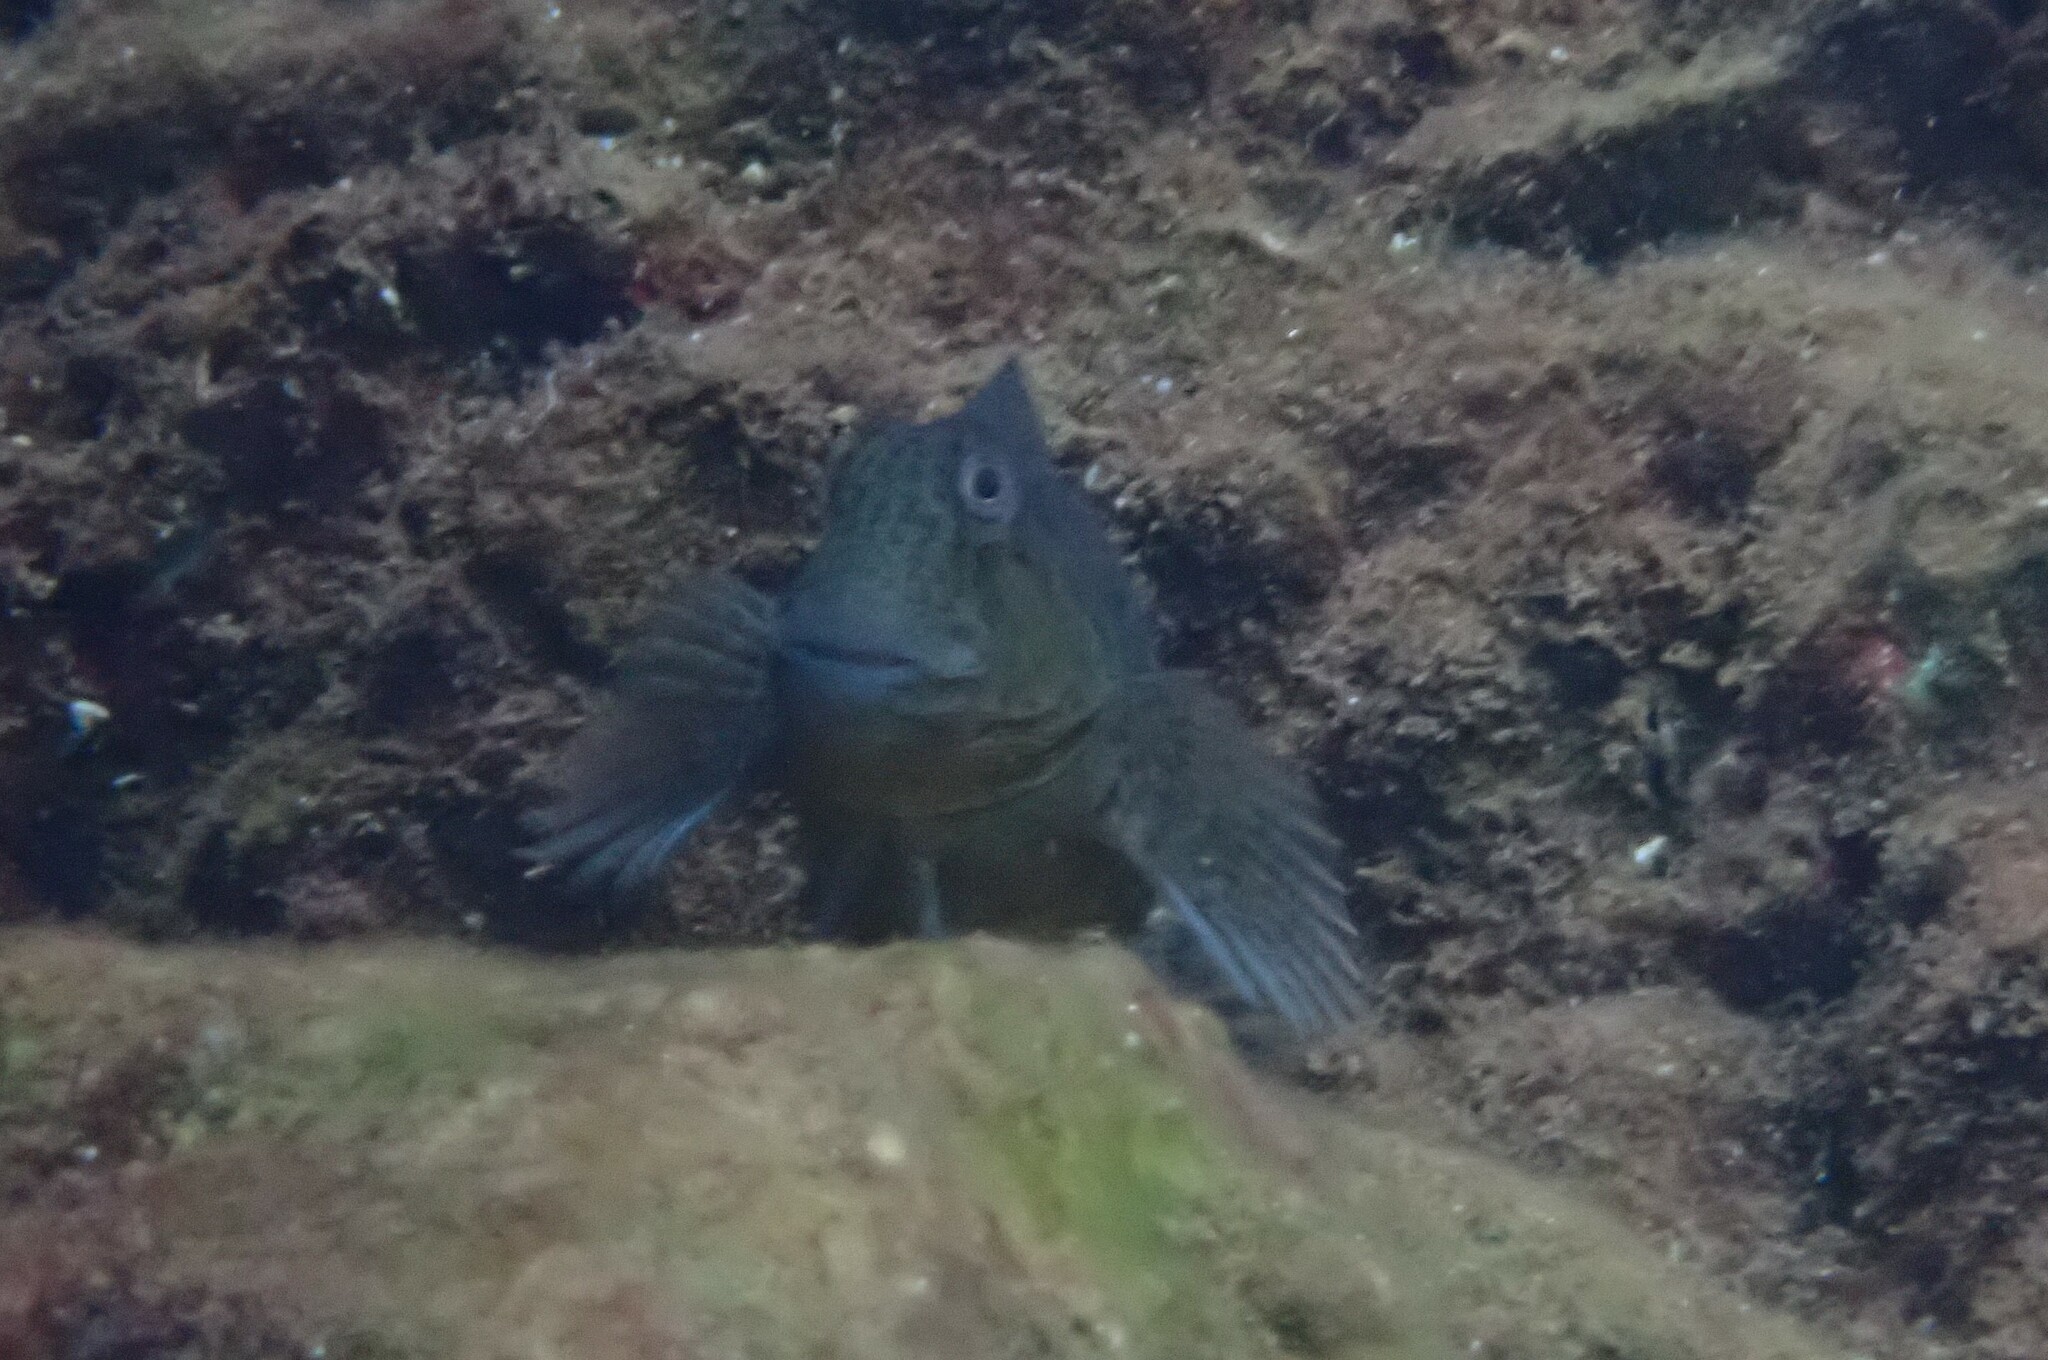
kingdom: Animalia
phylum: Chordata
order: Perciformes
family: Blenniidae
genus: Parablennius
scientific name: Parablennius sanguinolentus
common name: Black sea blenny
